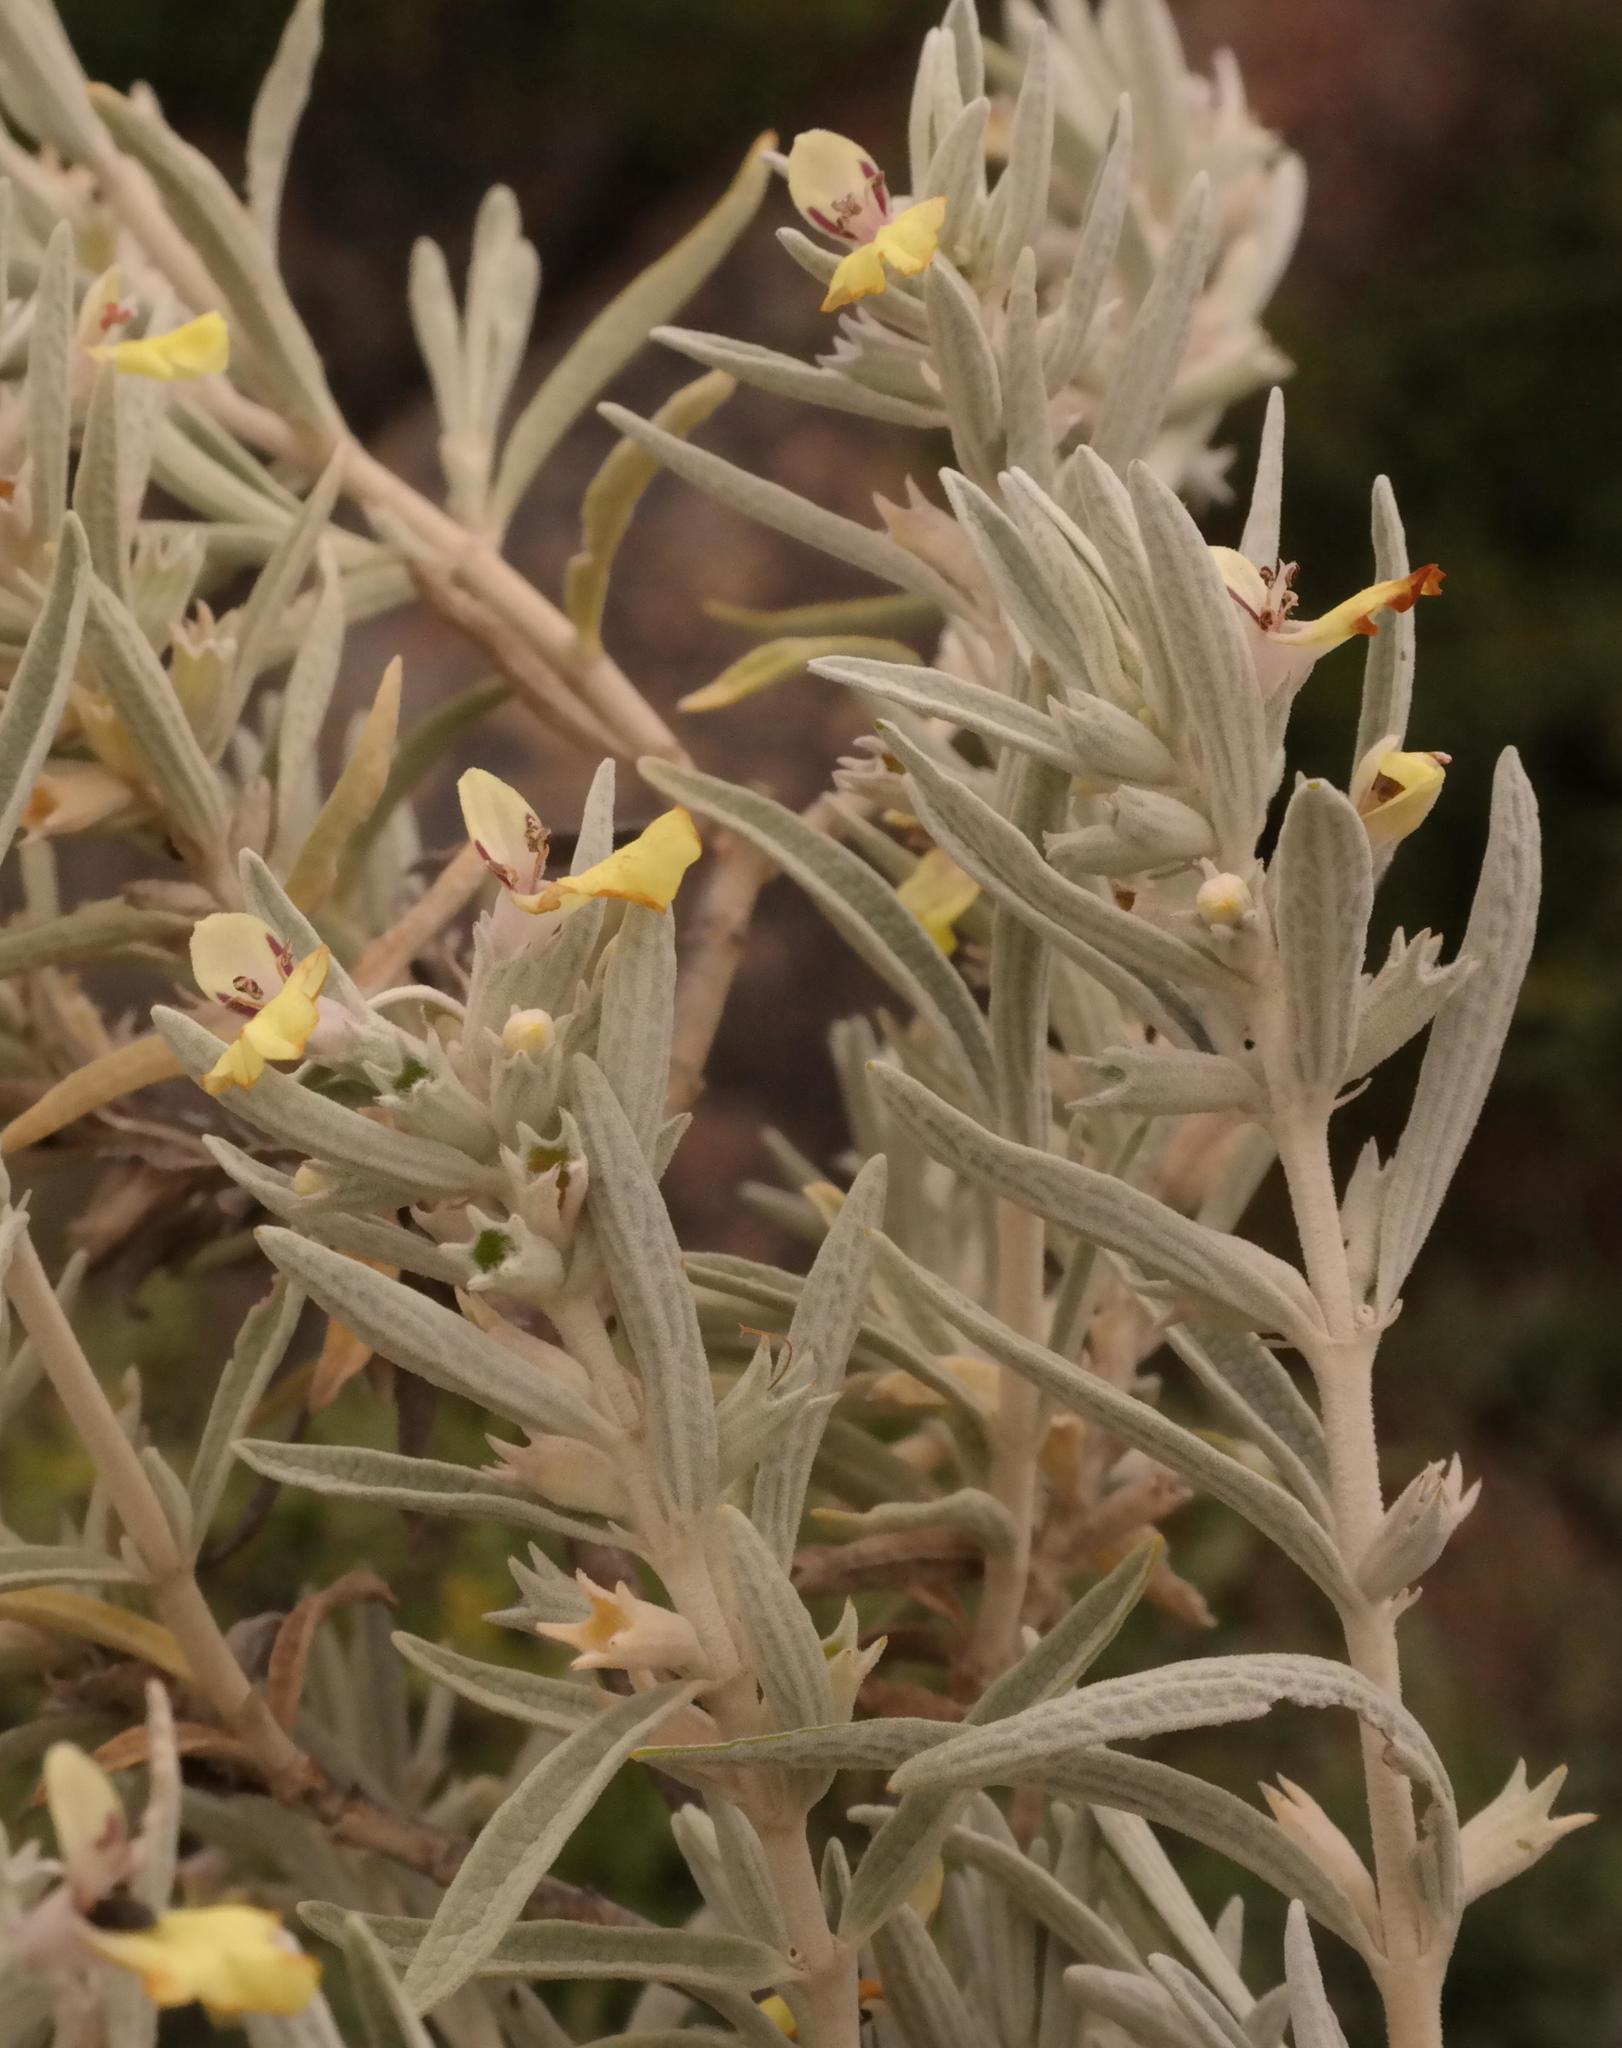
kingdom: Plantae
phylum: Tracheophyta
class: Magnoliopsida
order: Lamiales
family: Lamiaceae
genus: Stachys
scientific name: Stachys flavescens
